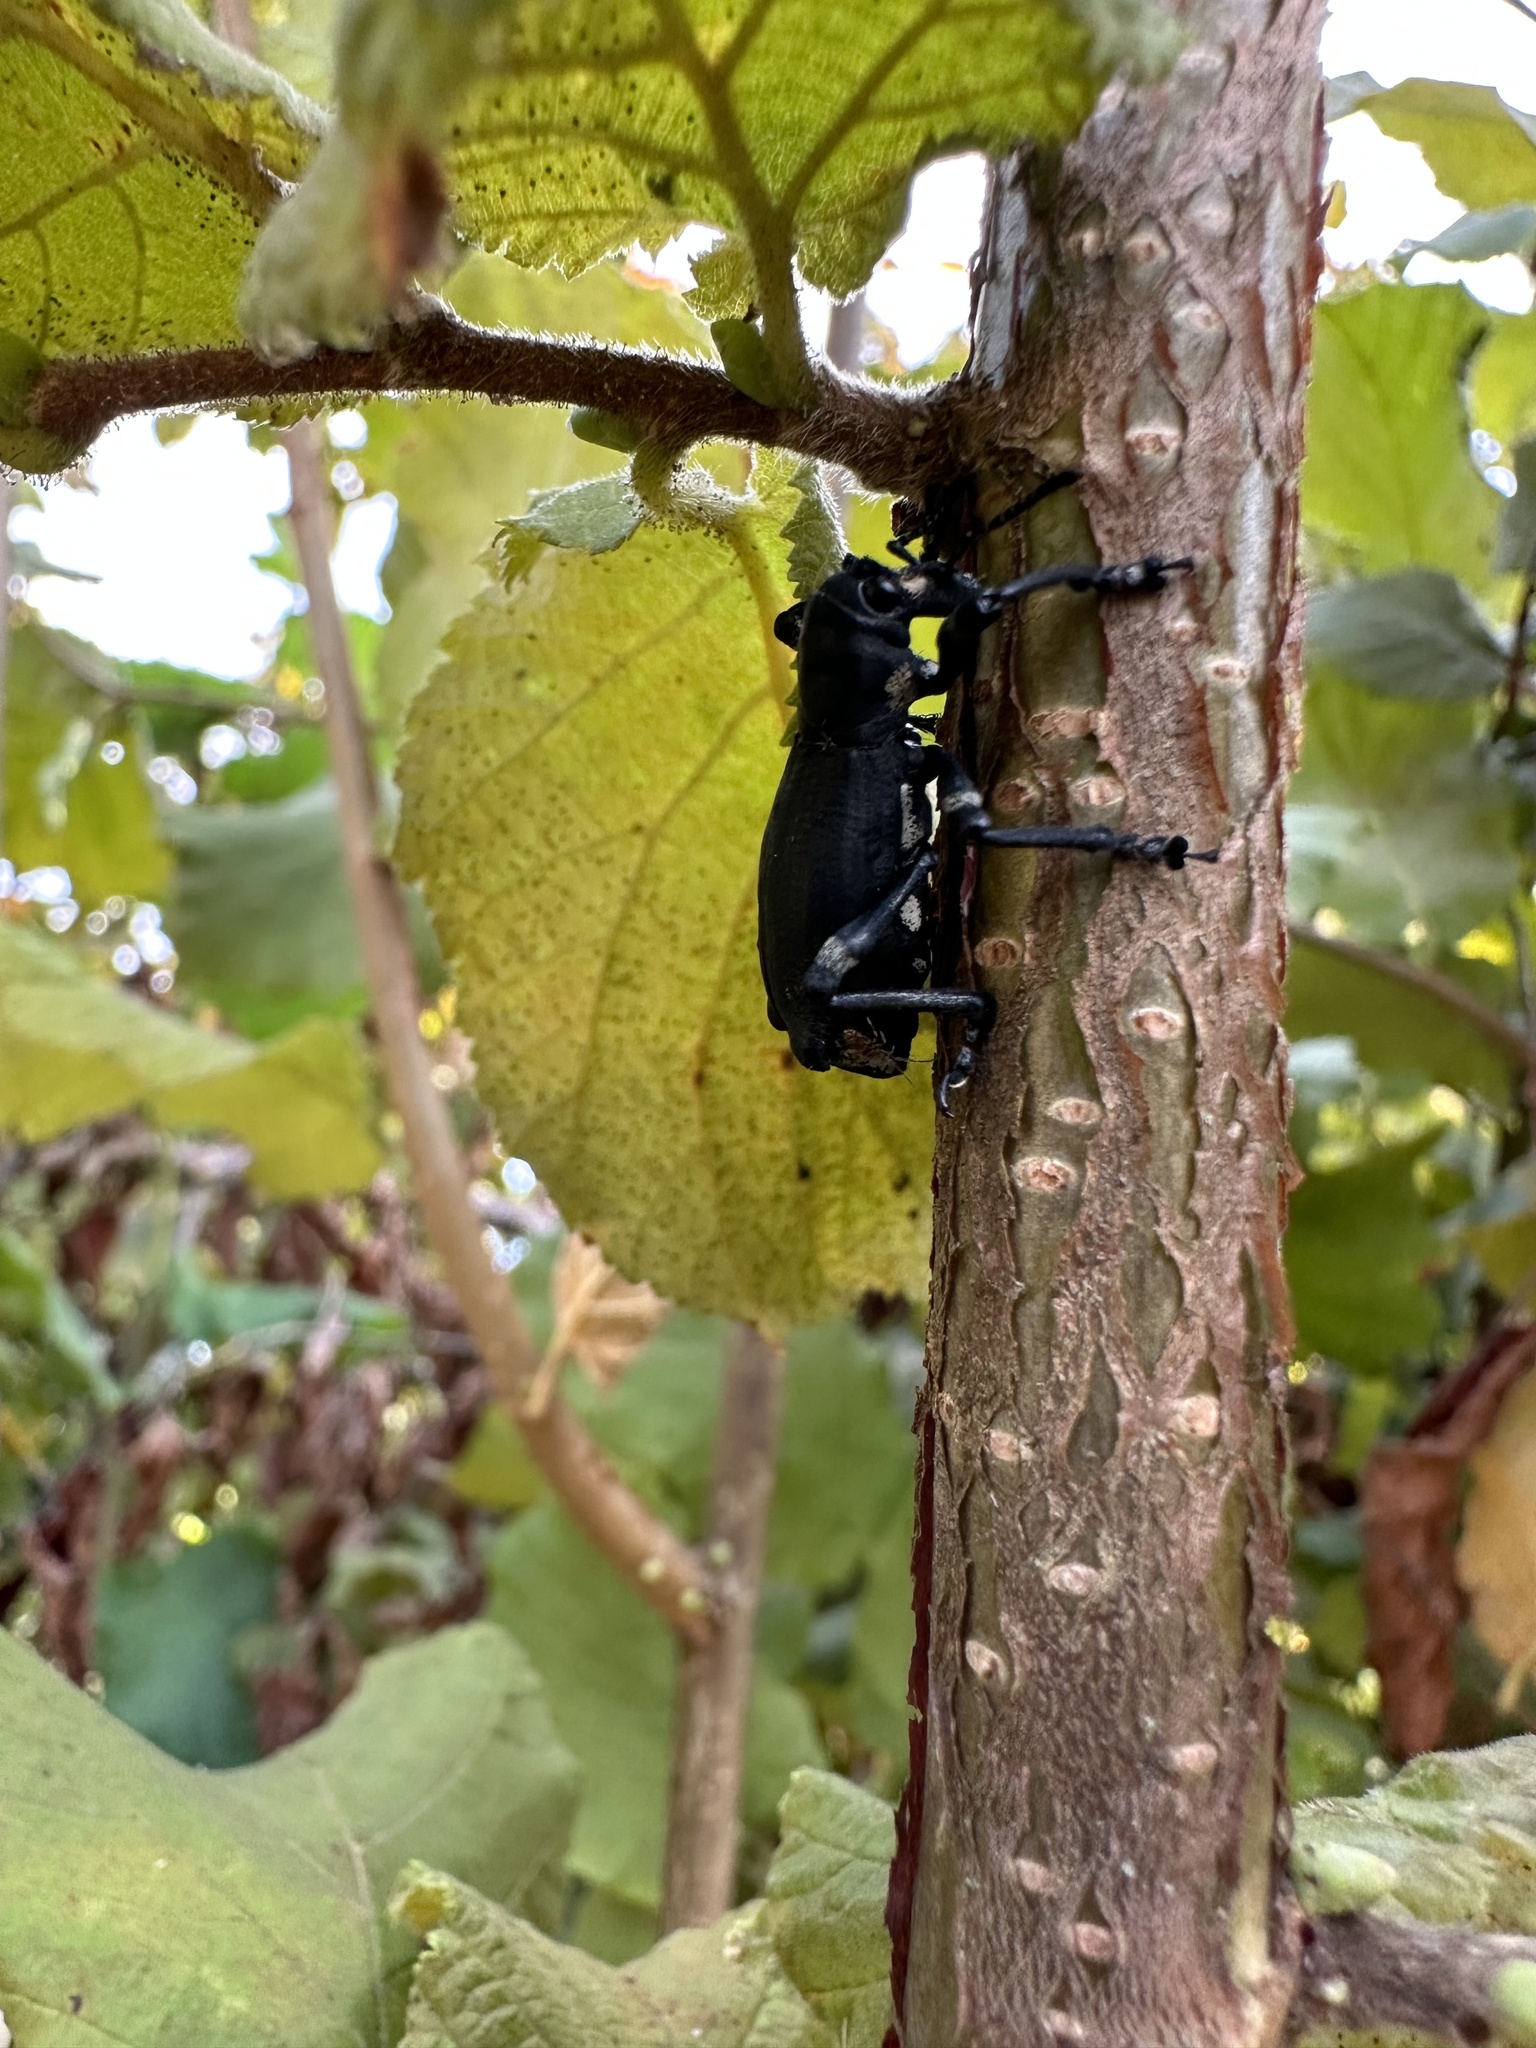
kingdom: Animalia
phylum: Arthropoda
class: Insecta
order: Coleoptera
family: Curculionidae
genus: Aegorhinus
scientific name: Aegorhinus
